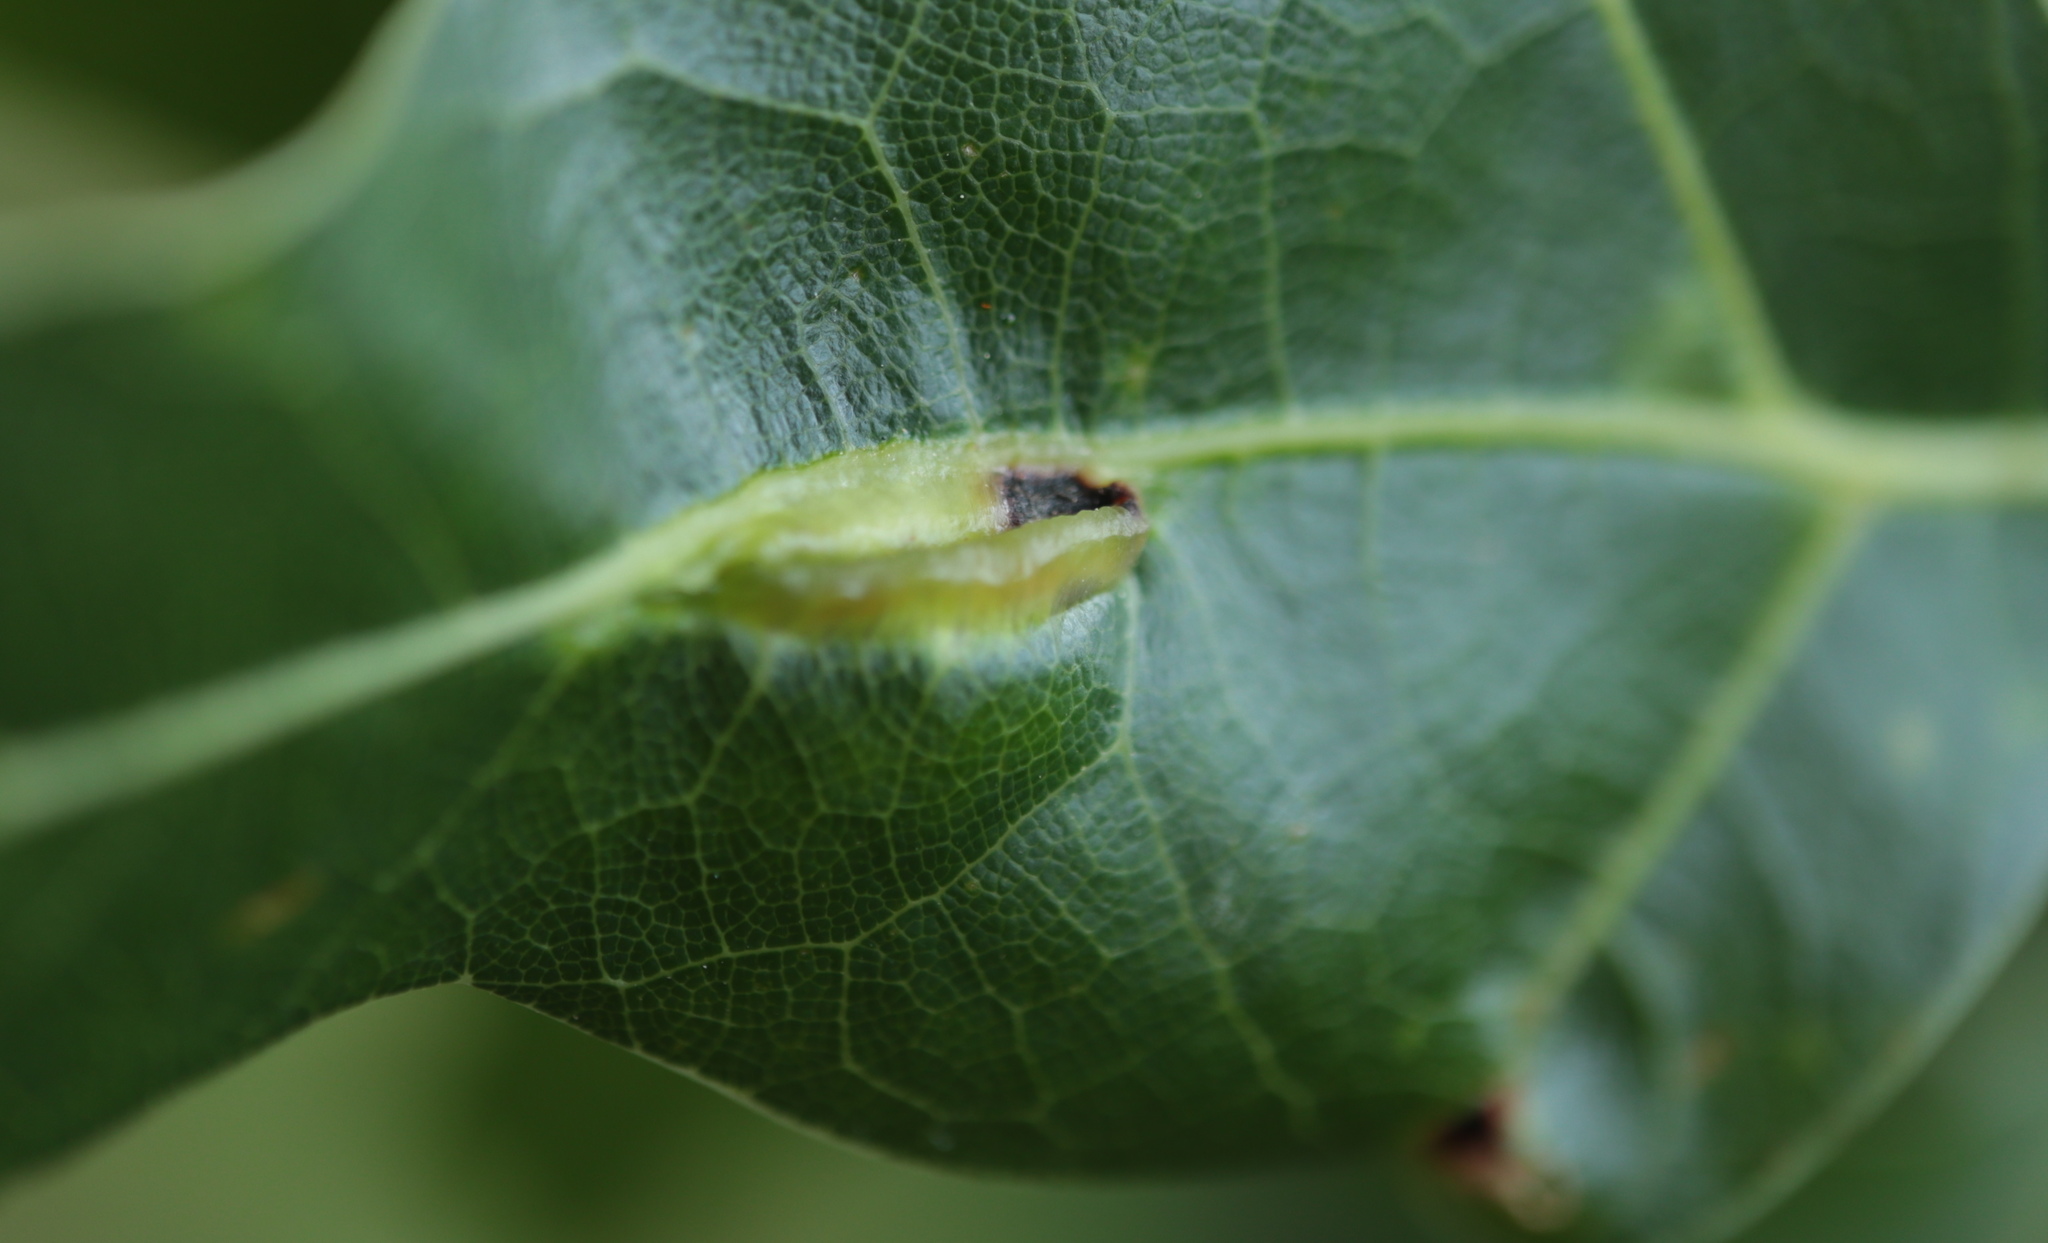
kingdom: Animalia
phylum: Arthropoda
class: Insecta
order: Diptera
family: Cecidomyiidae
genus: Macrodiplosis
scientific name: Macrodiplosis majalis
